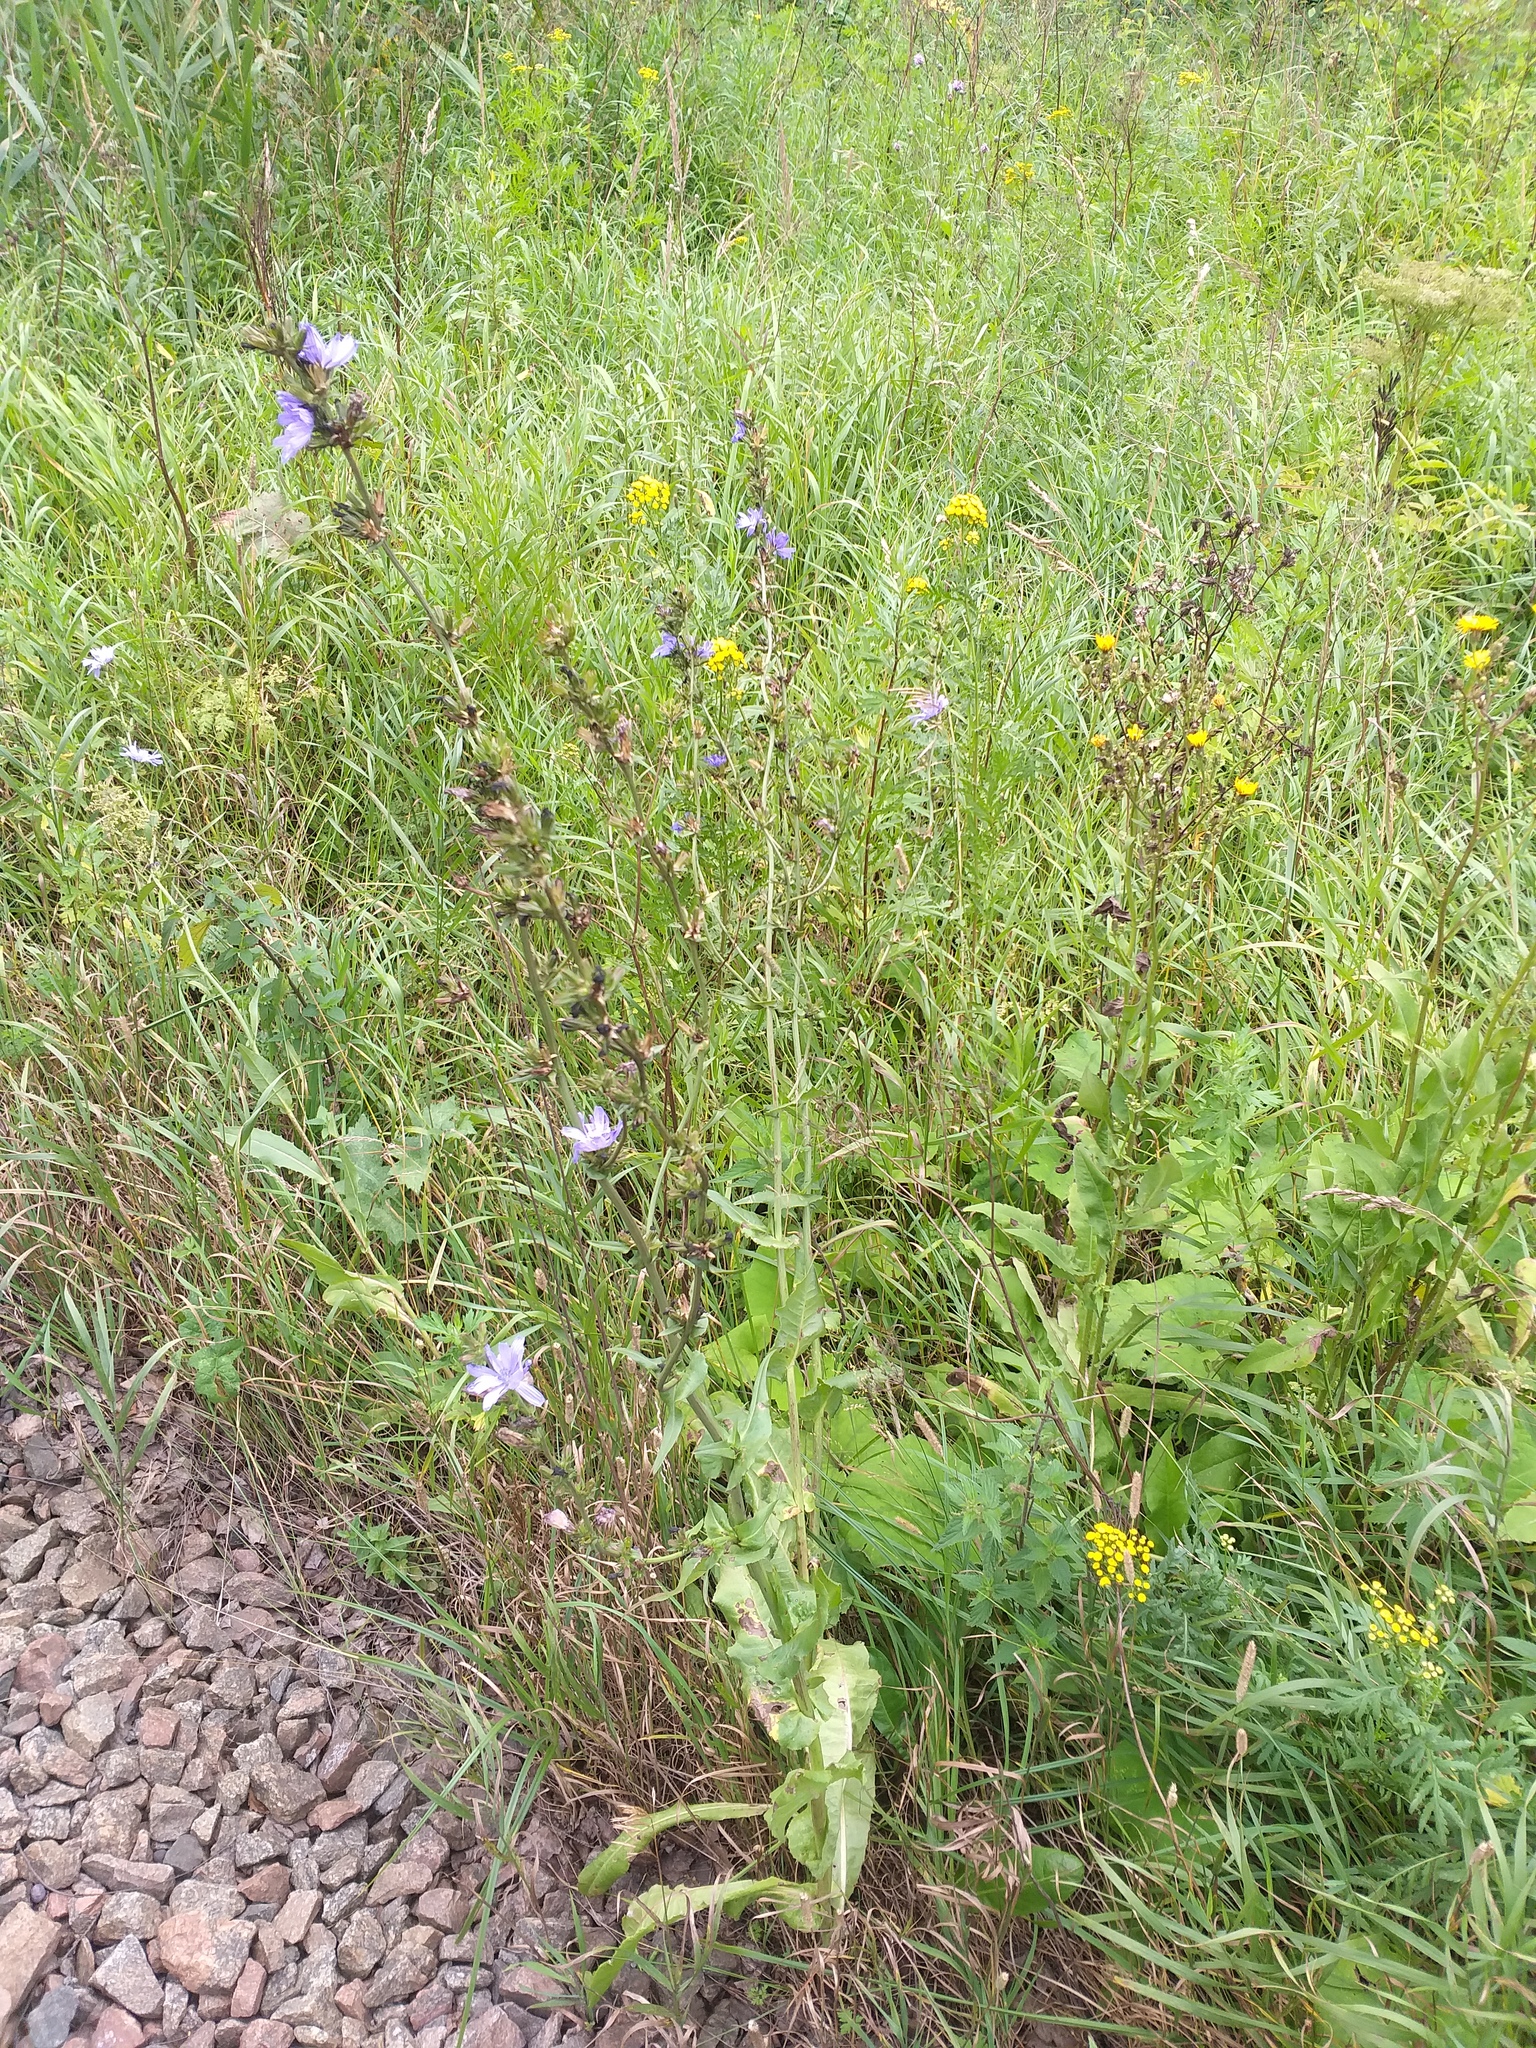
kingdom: Plantae
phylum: Tracheophyta
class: Magnoliopsida
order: Asterales
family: Asteraceae
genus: Cichorium
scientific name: Cichorium intybus
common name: Chicory
